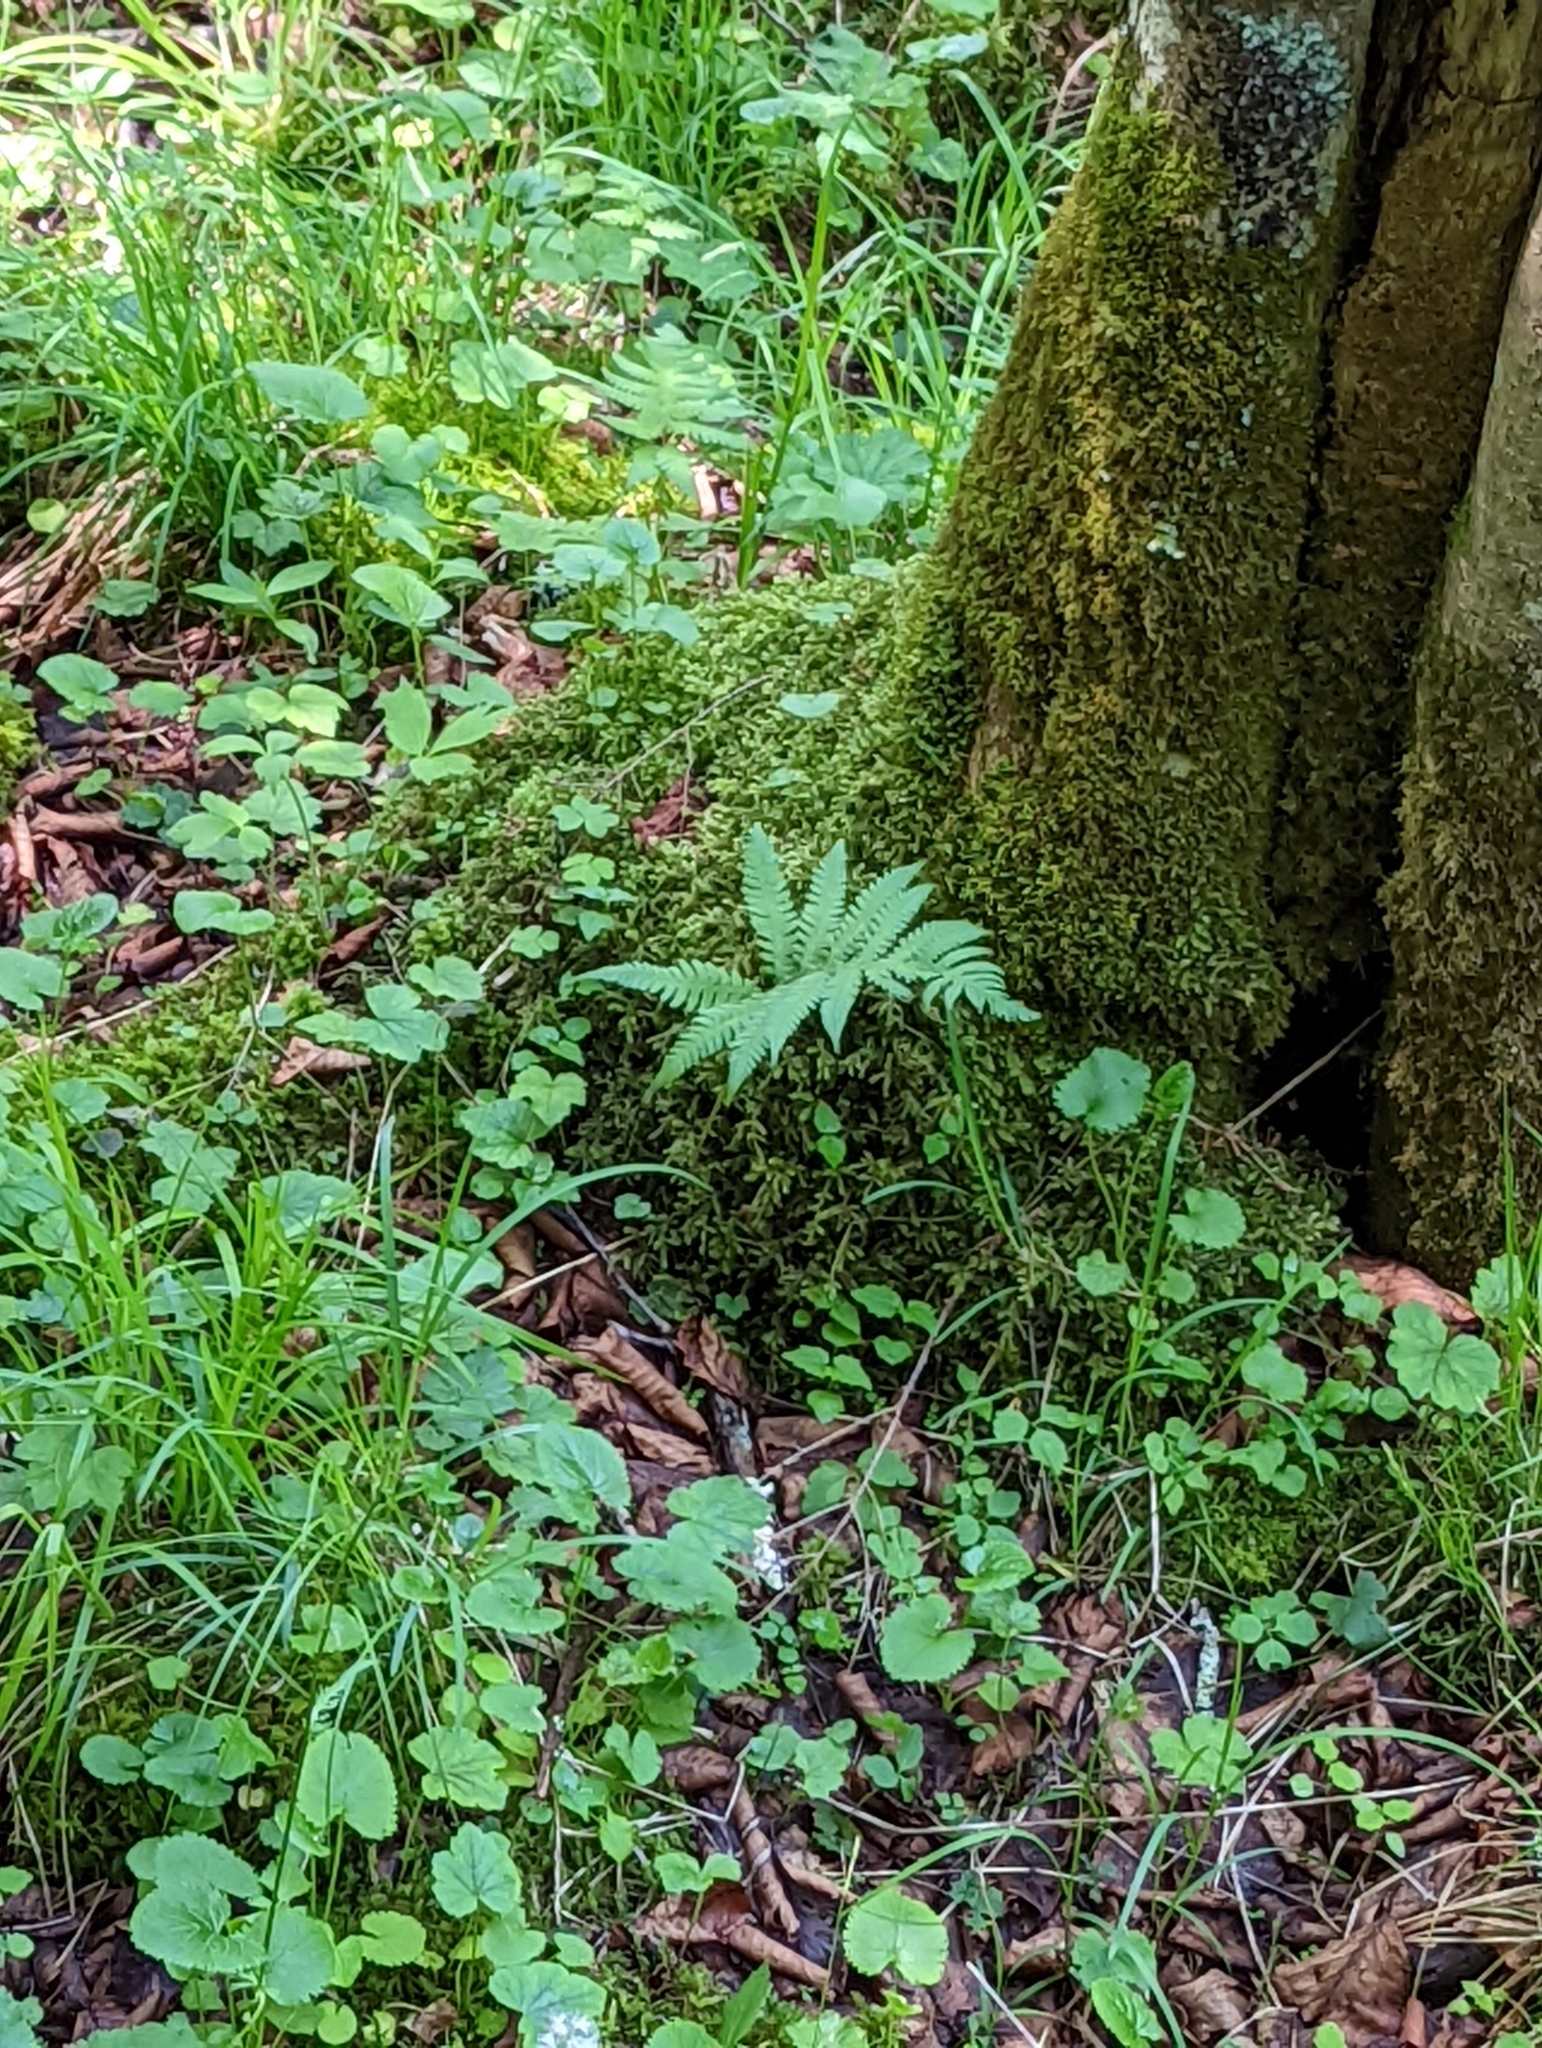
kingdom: Plantae
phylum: Tracheophyta
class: Polypodiopsida
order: Polypodiales
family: Thelypteridaceae
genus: Phegopteris
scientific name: Phegopteris connectilis
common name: Beech fern
